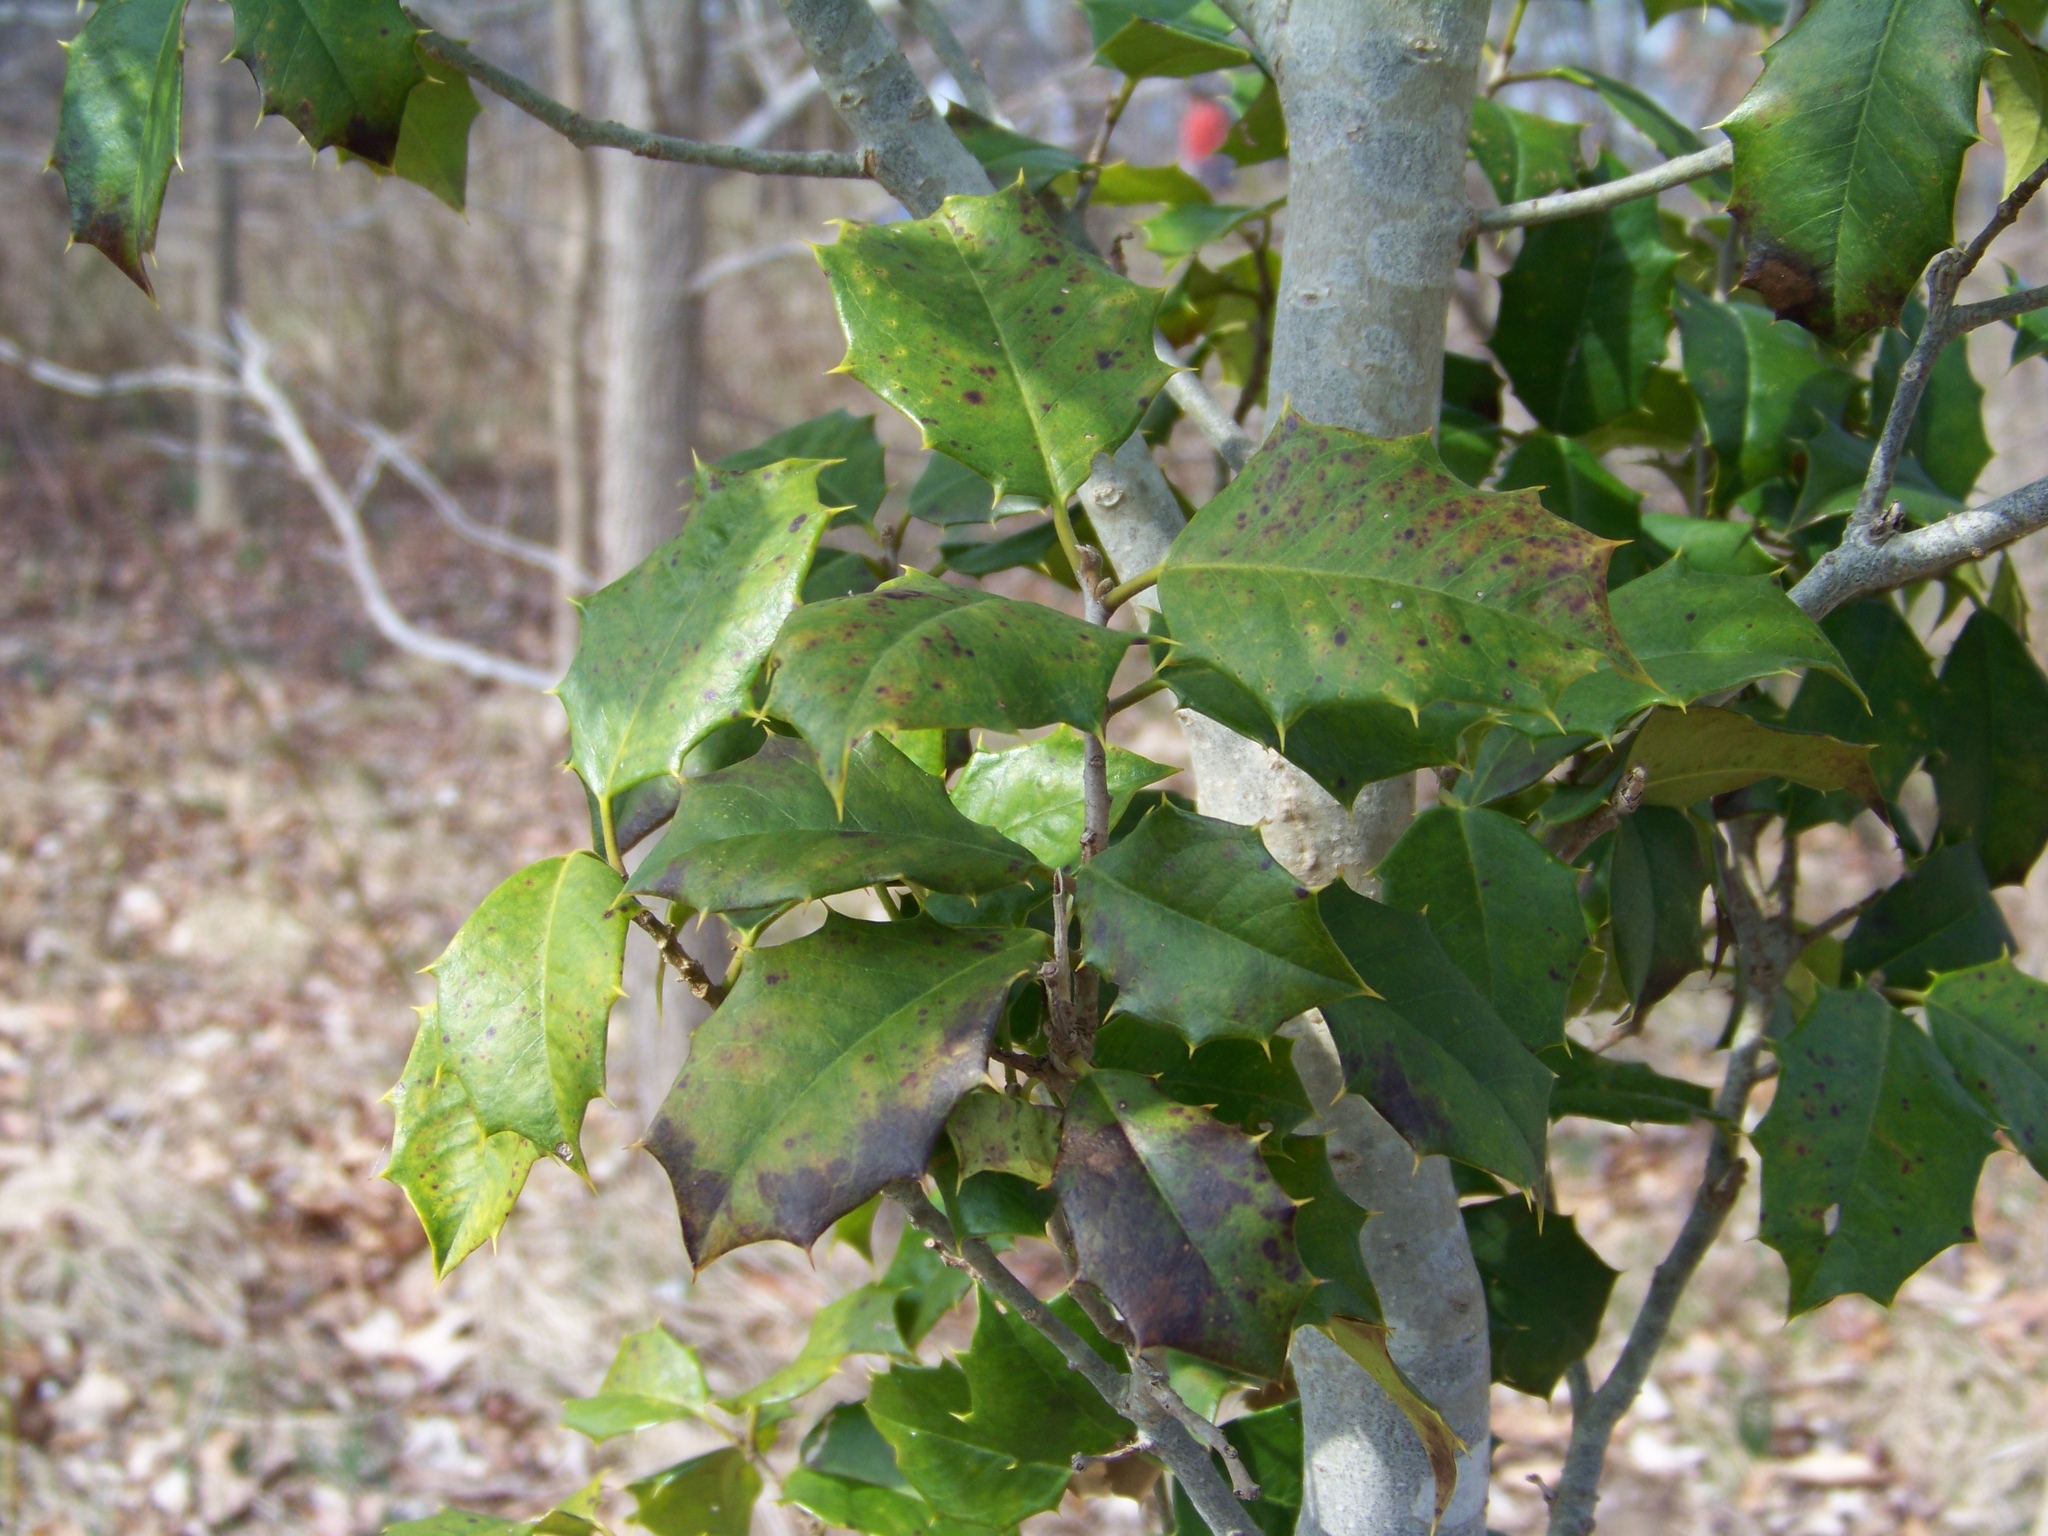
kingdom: Plantae
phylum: Tracheophyta
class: Magnoliopsida
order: Aquifoliales
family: Aquifoliaceae
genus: Ilex
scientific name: Ilex opaca
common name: American holly
